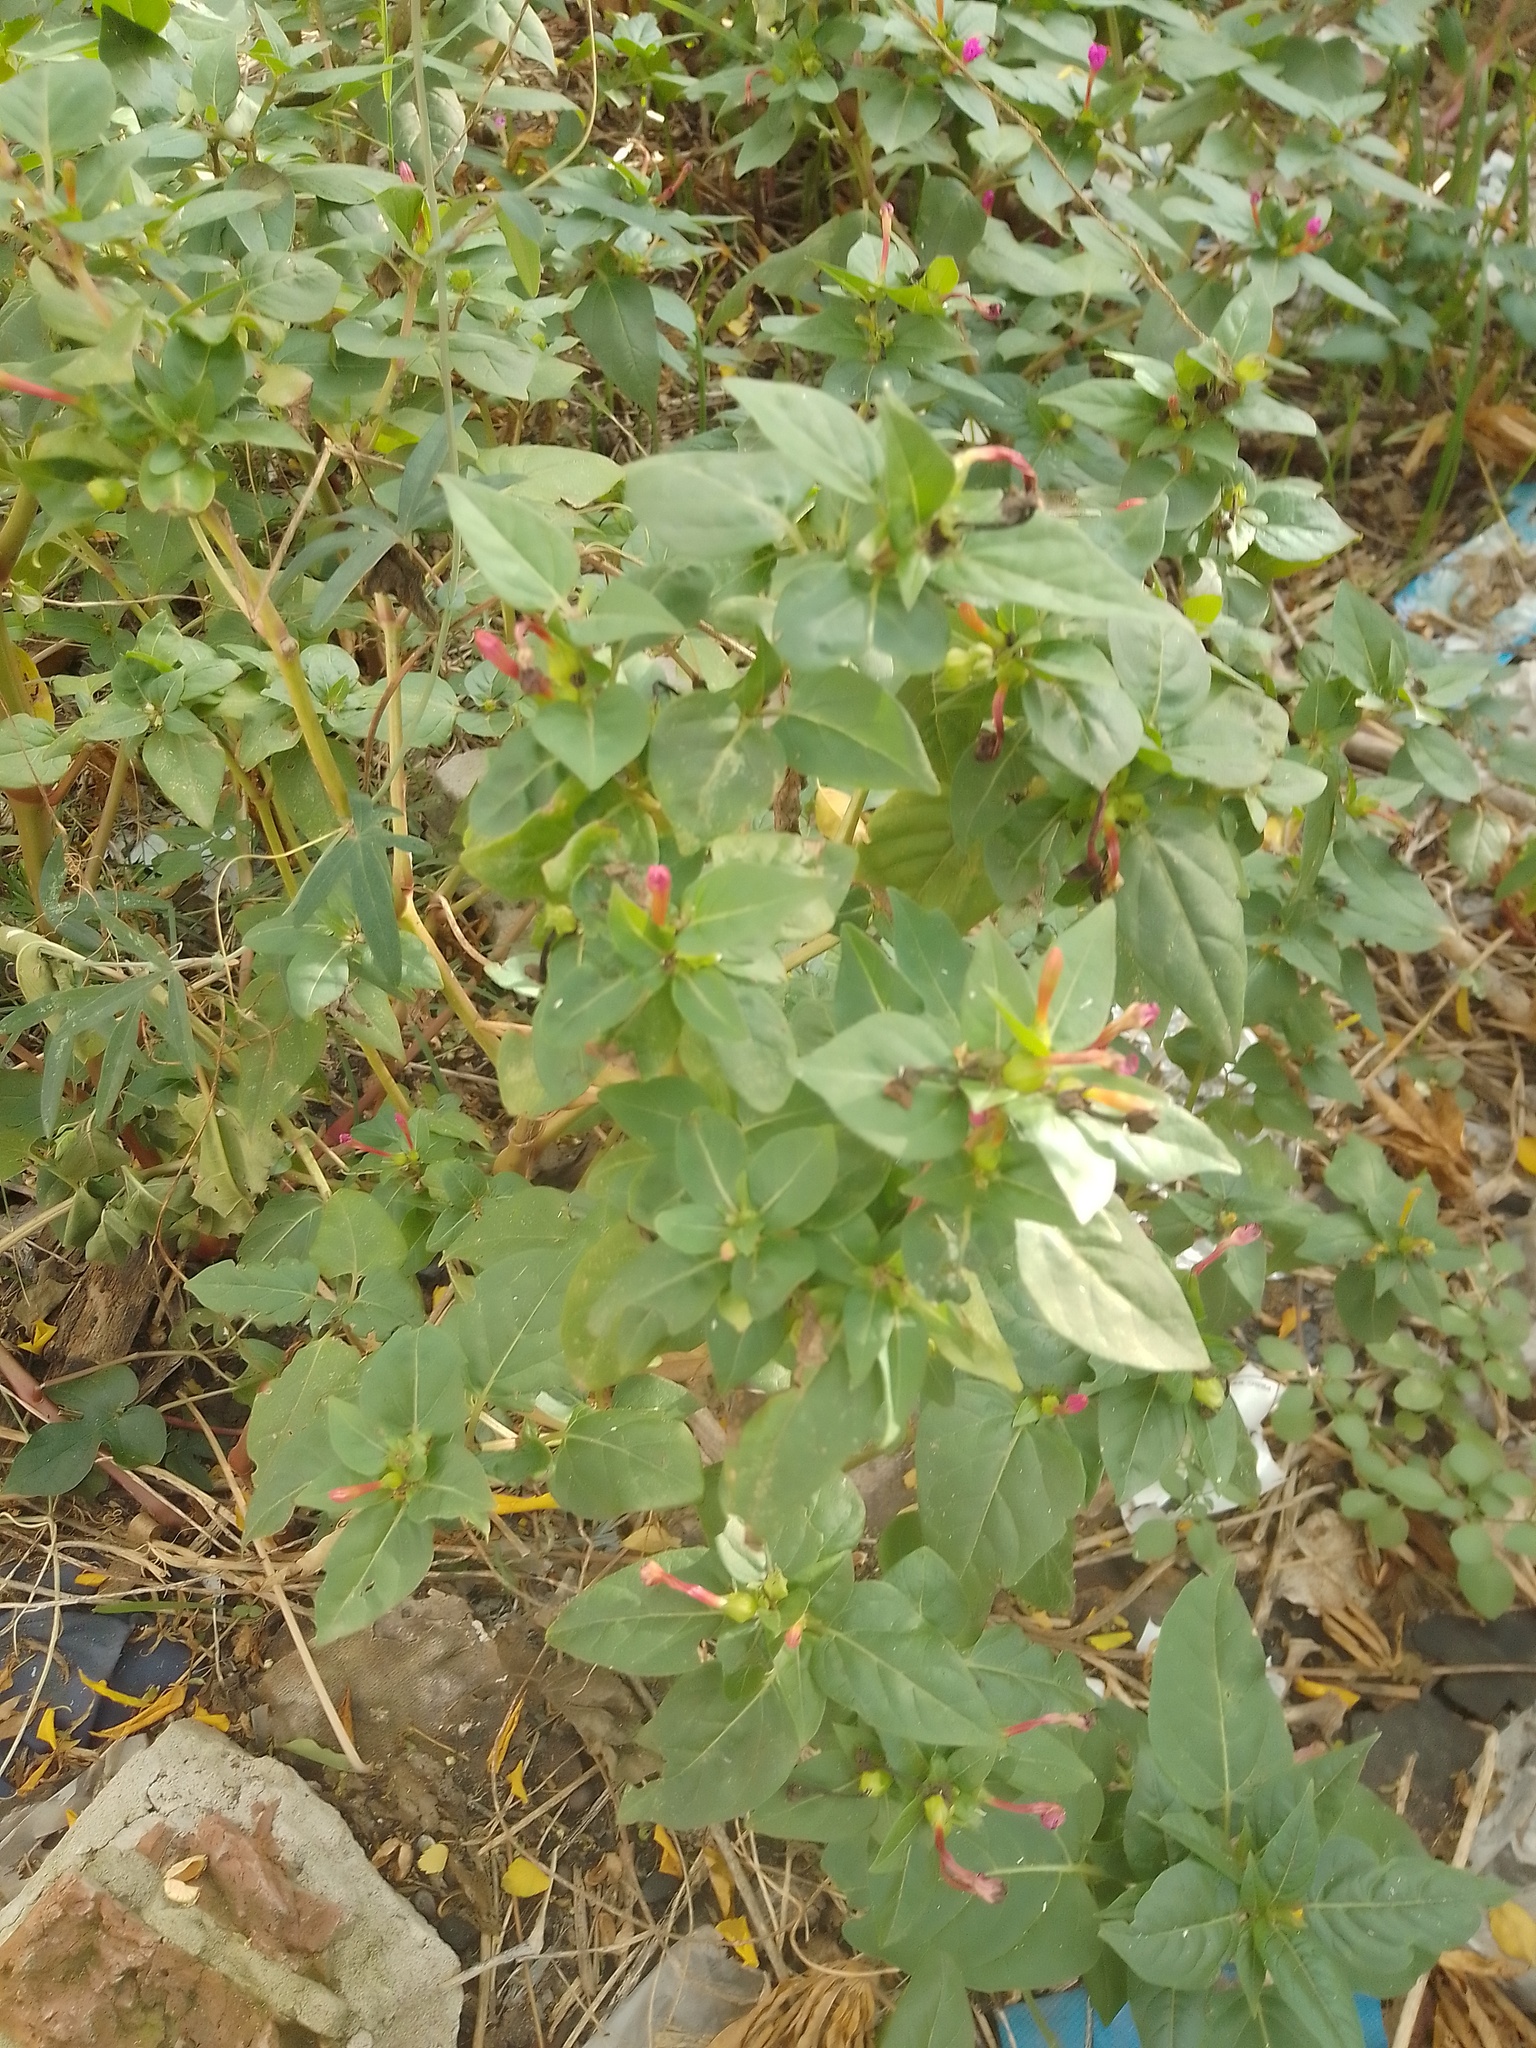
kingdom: Plantae
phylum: Tracheophyta
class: Magnoliopsida
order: Caryophyllales
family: Nyctaginaceae
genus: Mirabilis
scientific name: Mirabilis jalapa
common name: Marvel-of-peru
